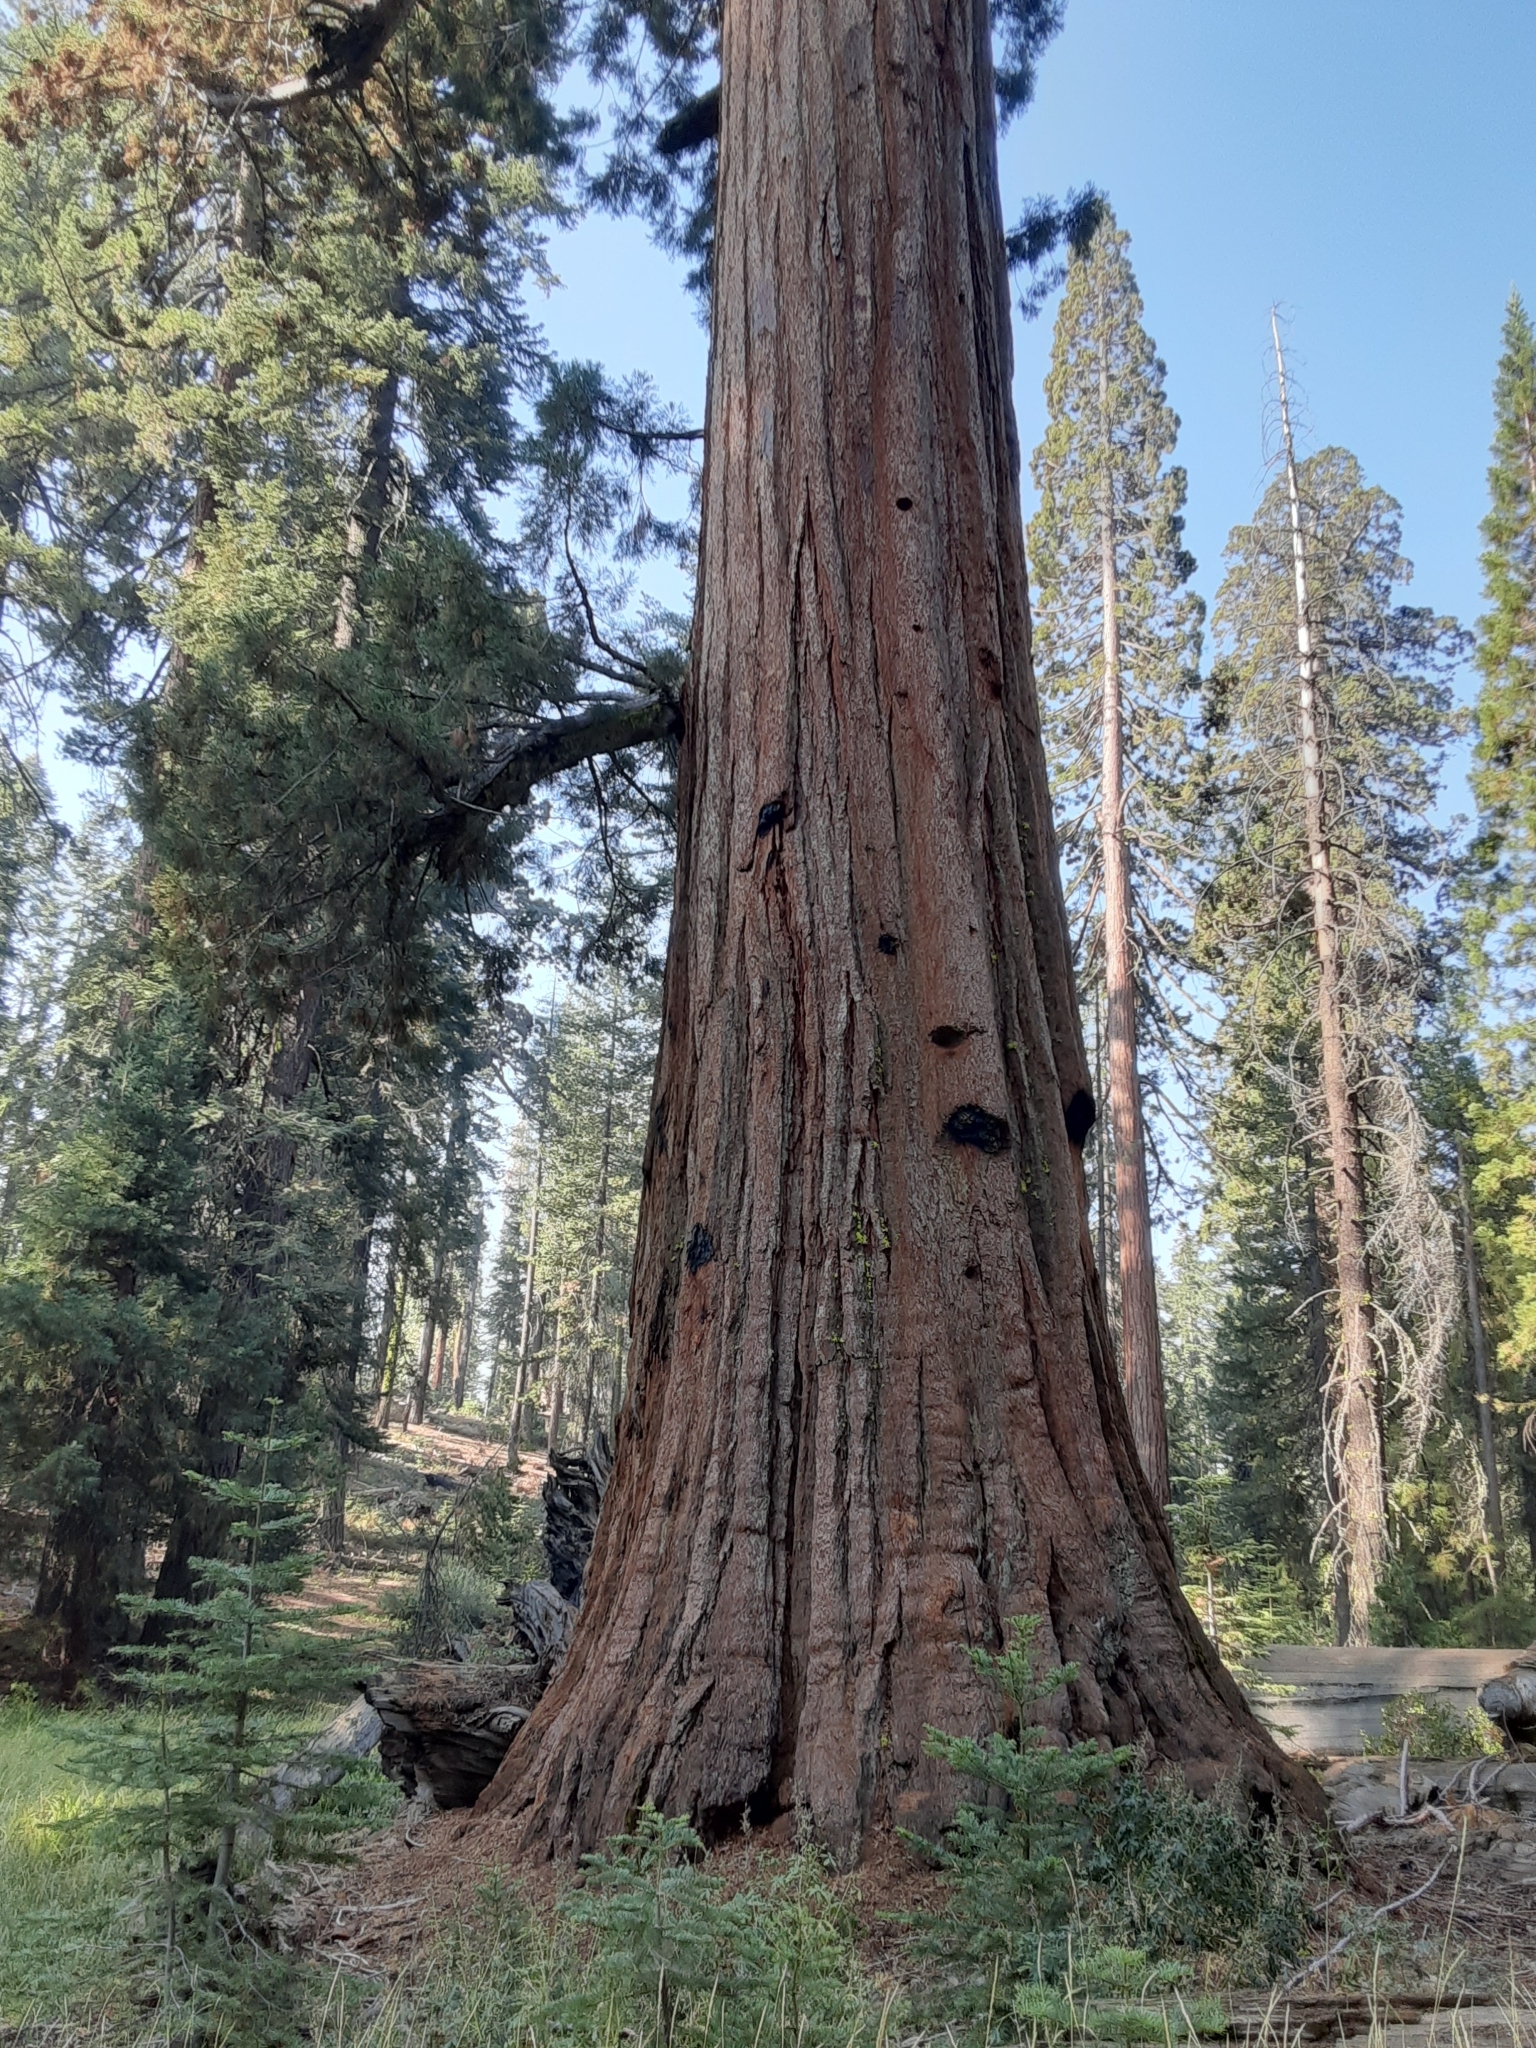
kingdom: Plantae
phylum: Tracheophyta
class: Pinopsida
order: Pinales
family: Cupressaceae
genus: Sequoiadendron
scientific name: Sequoiadendron giganteum
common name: Wellingtonia
